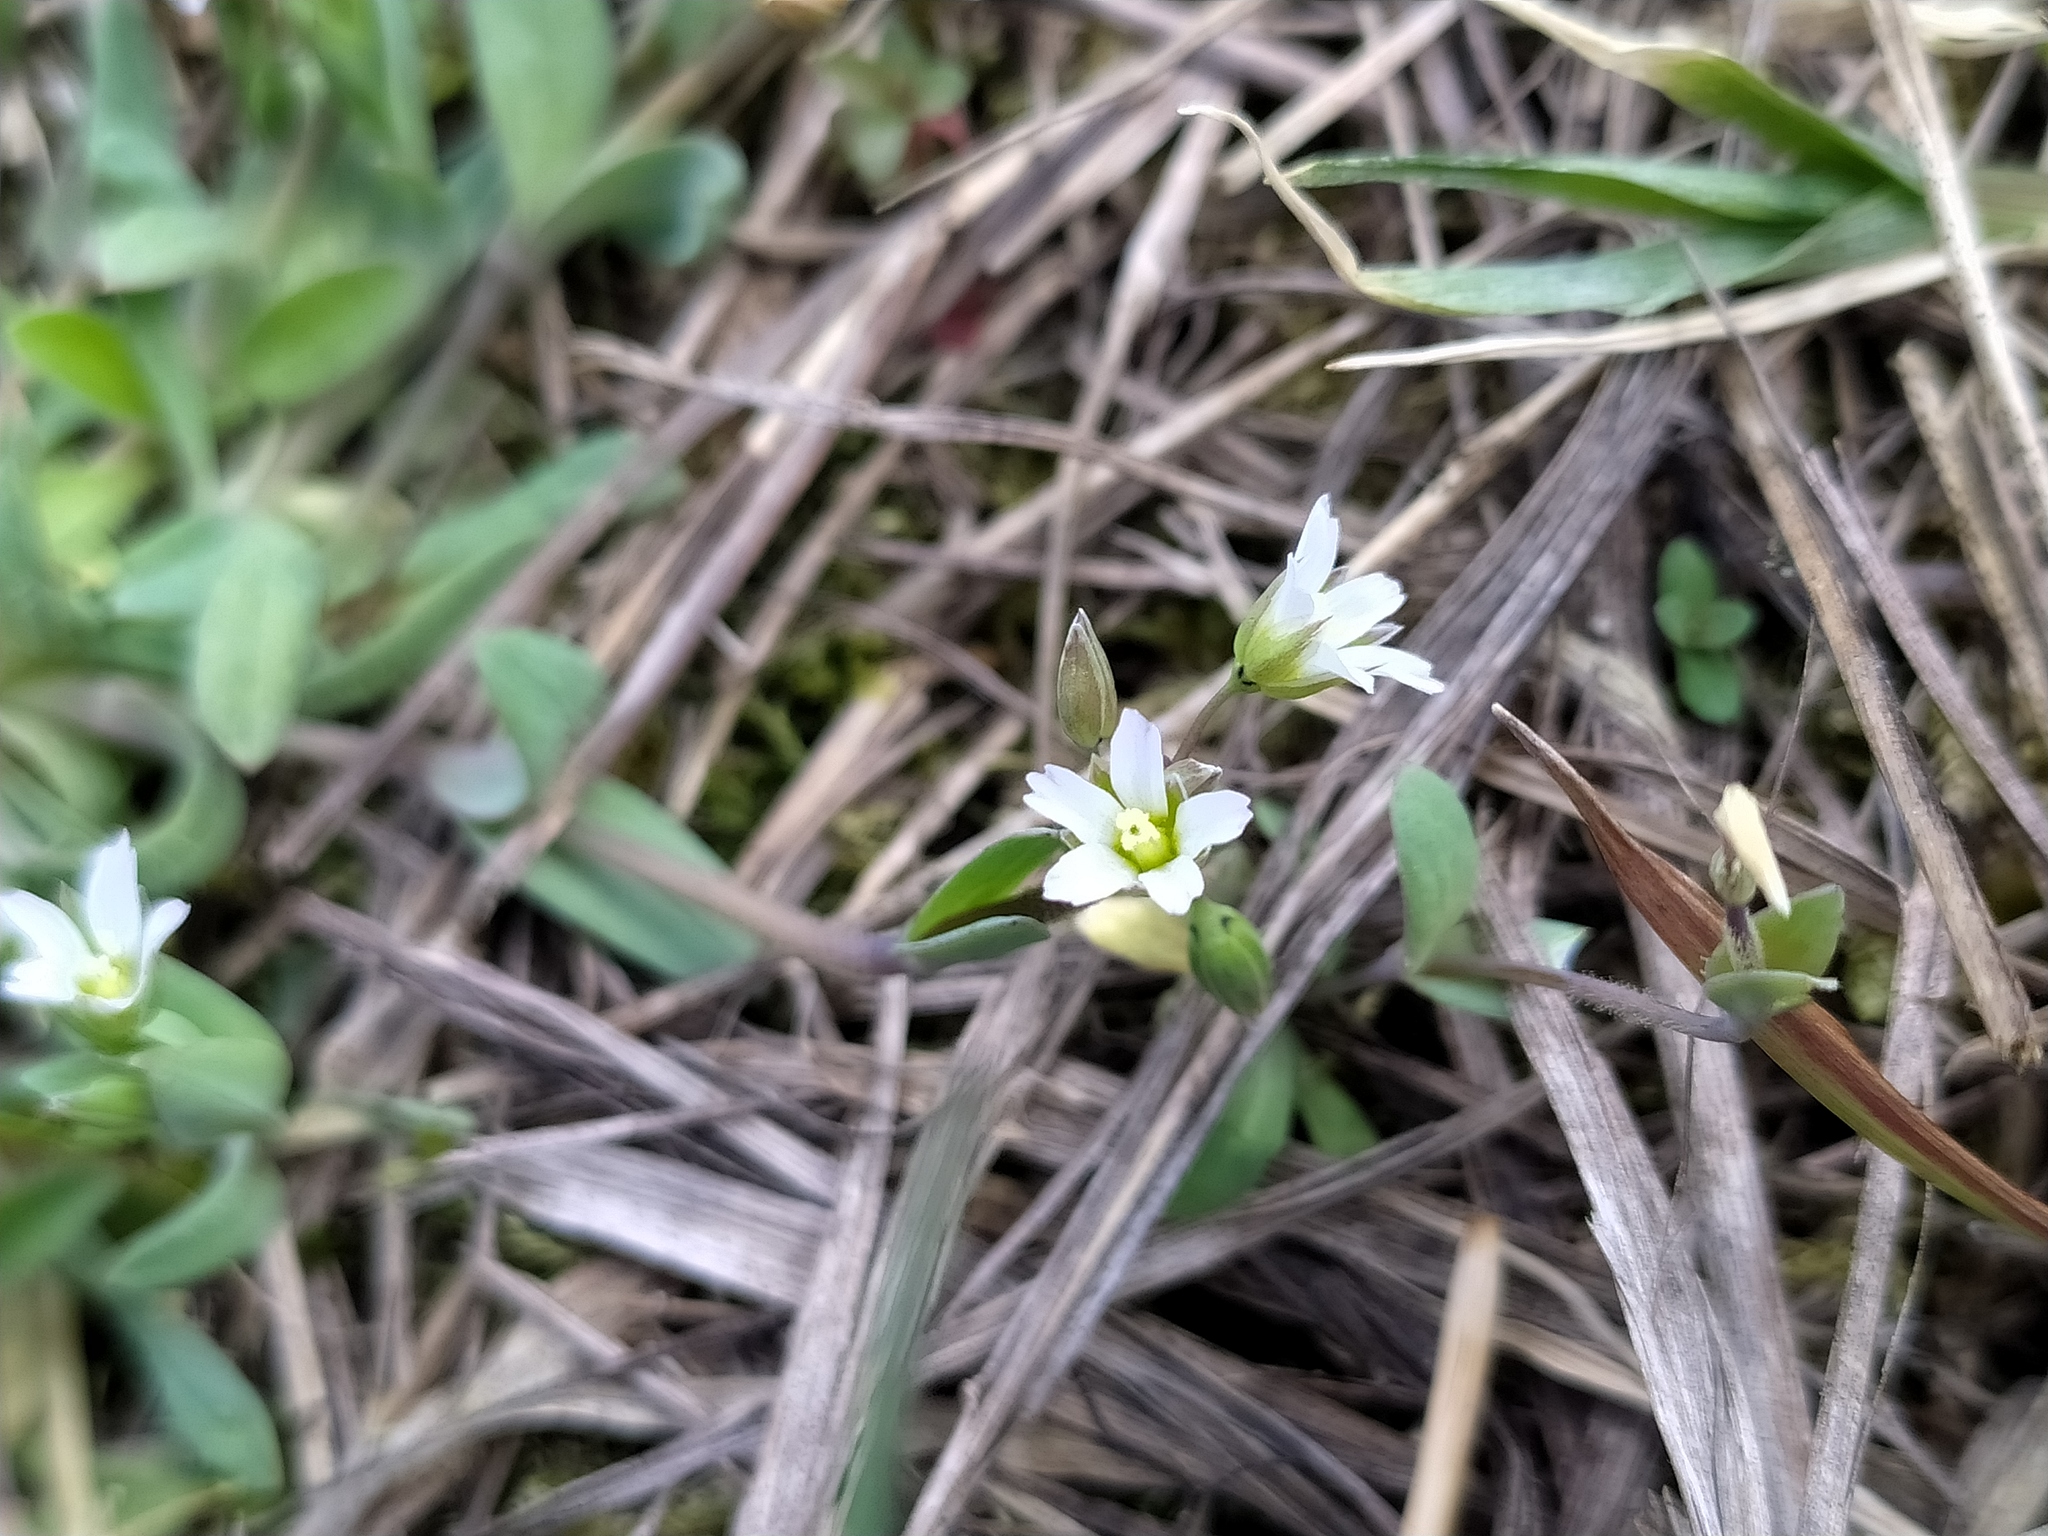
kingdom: Plantae
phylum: Tracheophyta
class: Magnoliopsida
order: Caryophyllales
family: Caryophyllaceae
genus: Holosteum
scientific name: Holosteum umbellatum
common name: Jagged chickweed
